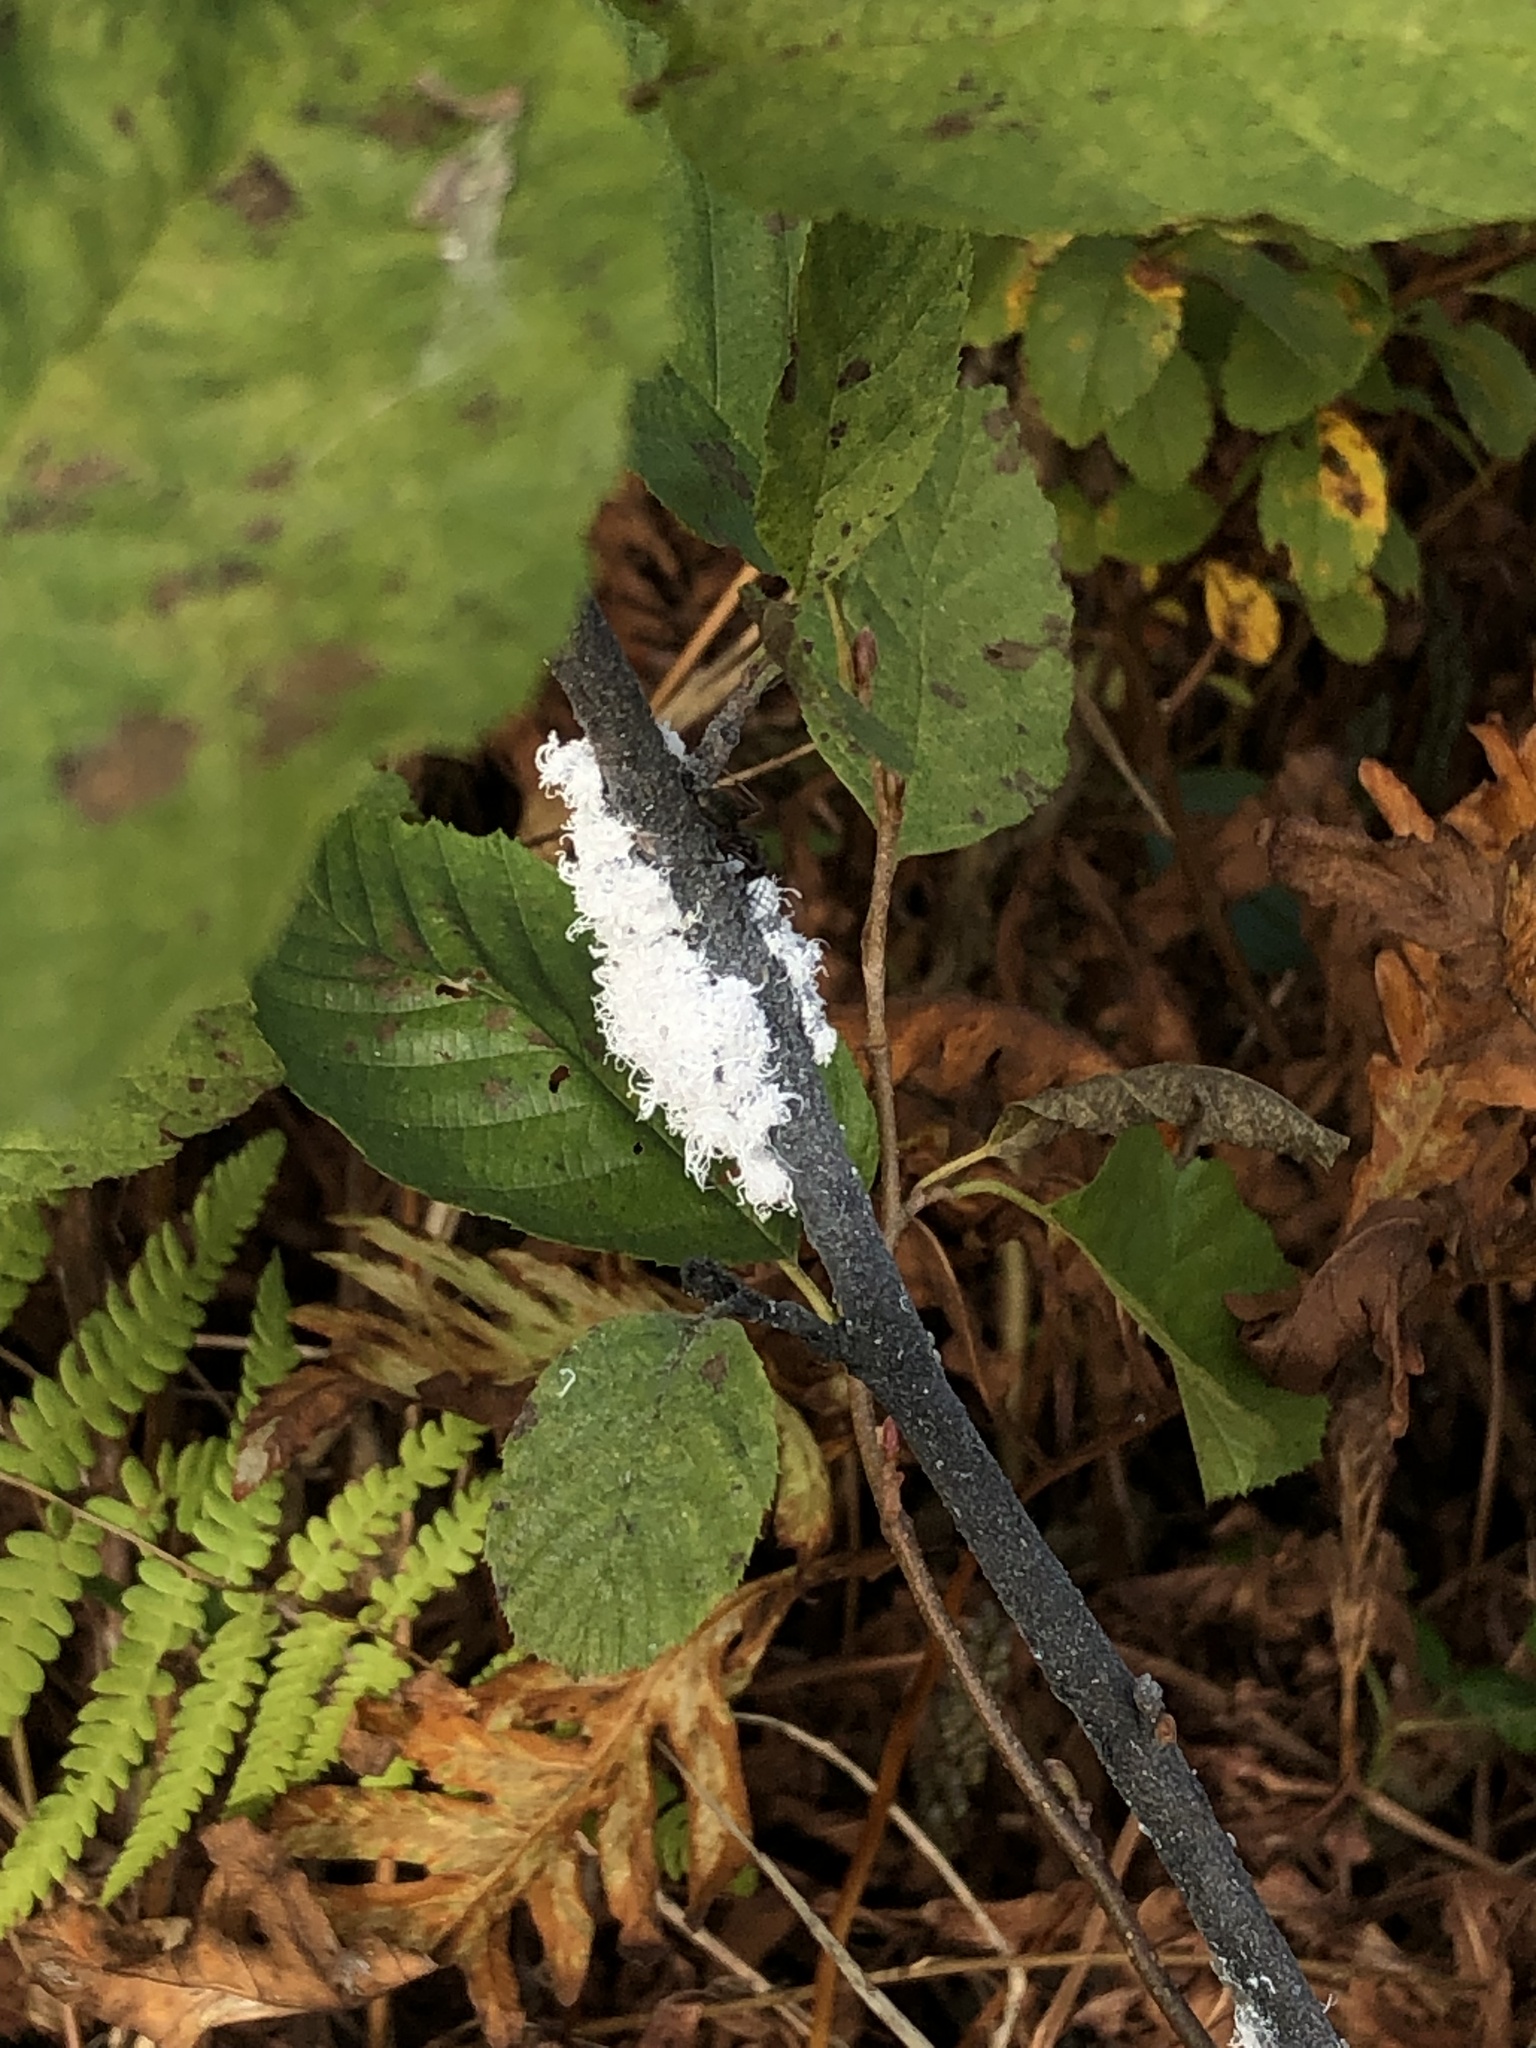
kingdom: Animalia
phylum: Arthropoda
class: Insecta
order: Hemiptera
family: Aphididae
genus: Prociphilus
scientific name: Prociphilus tessellatus
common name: Woolly alder aphid
